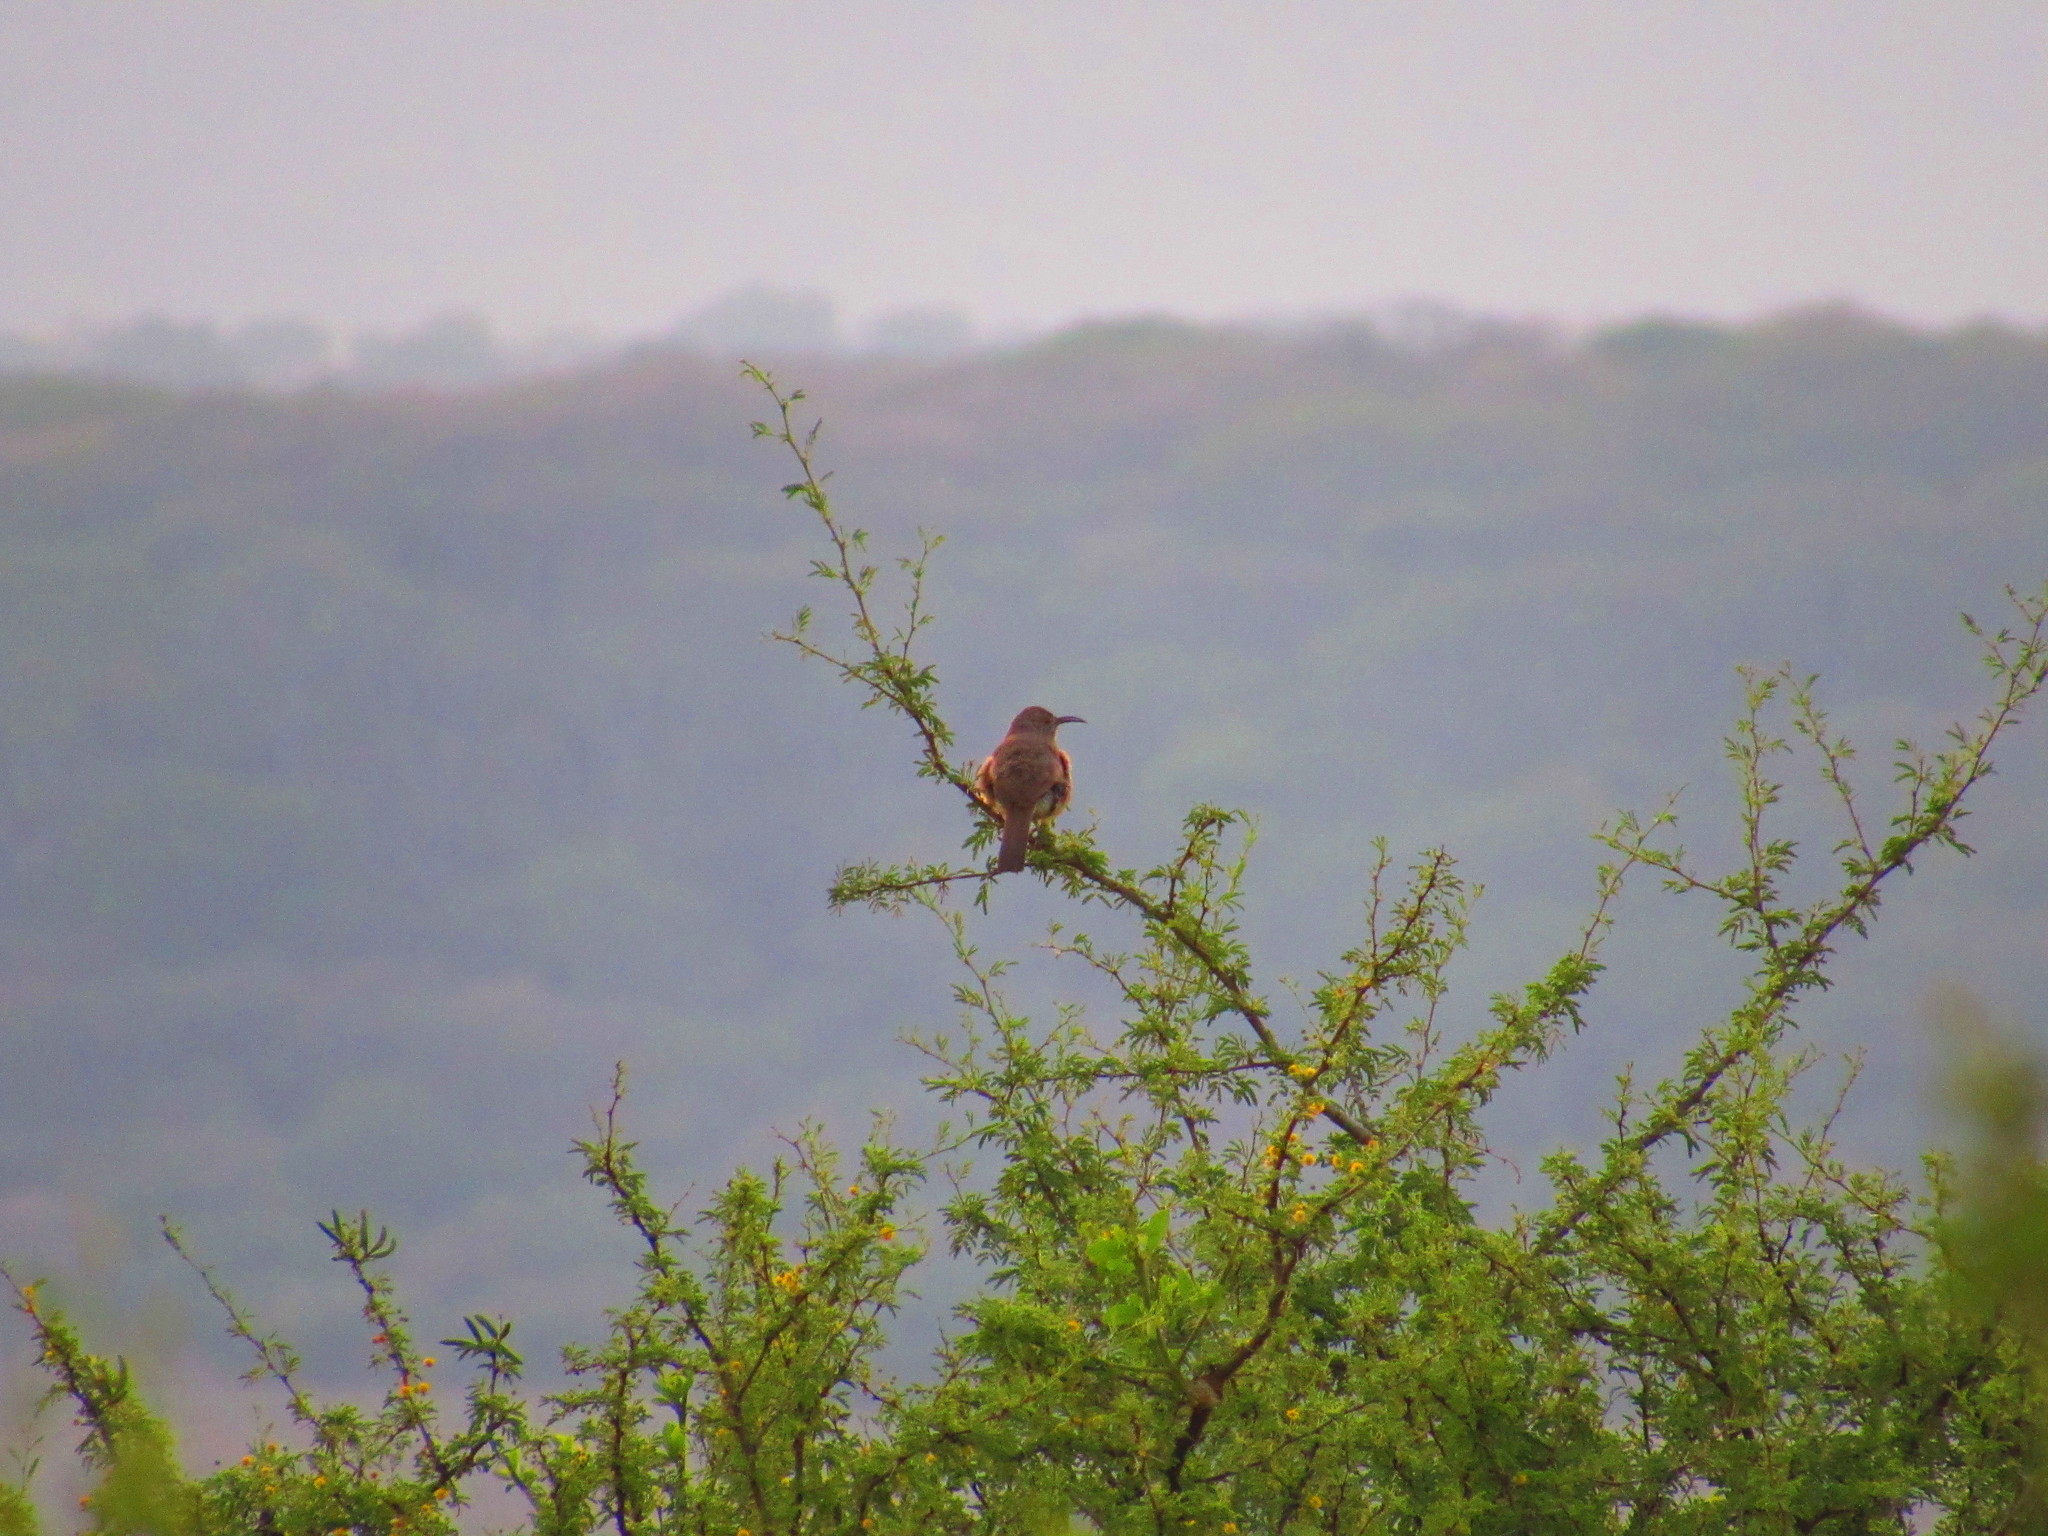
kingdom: Plantae
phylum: Tracheophyta
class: Magnoliopsida
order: Fabales
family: Fabaceae
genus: Vachellia
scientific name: Vachellia farnesiana
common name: Sweet acacia
